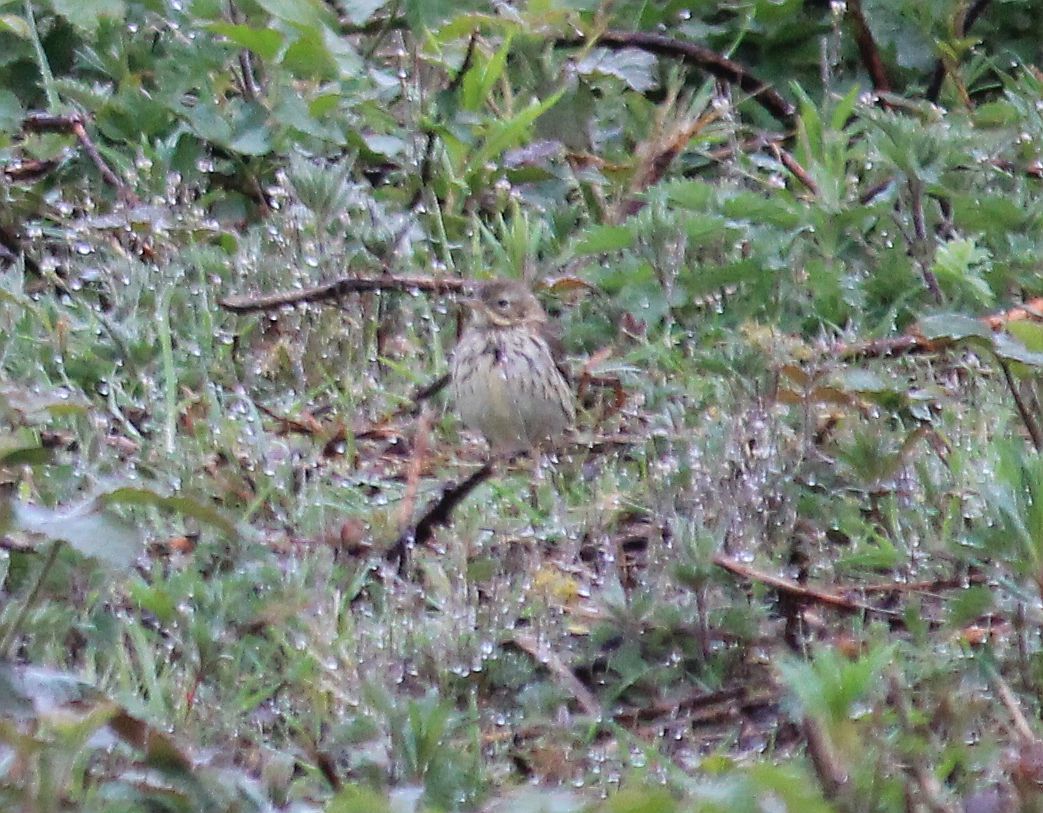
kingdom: Animalia
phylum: Chordata
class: Aves
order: Passeriformes
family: Motacillidae
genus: Anthus
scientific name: Anthus pratensis
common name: Meadow pipit
